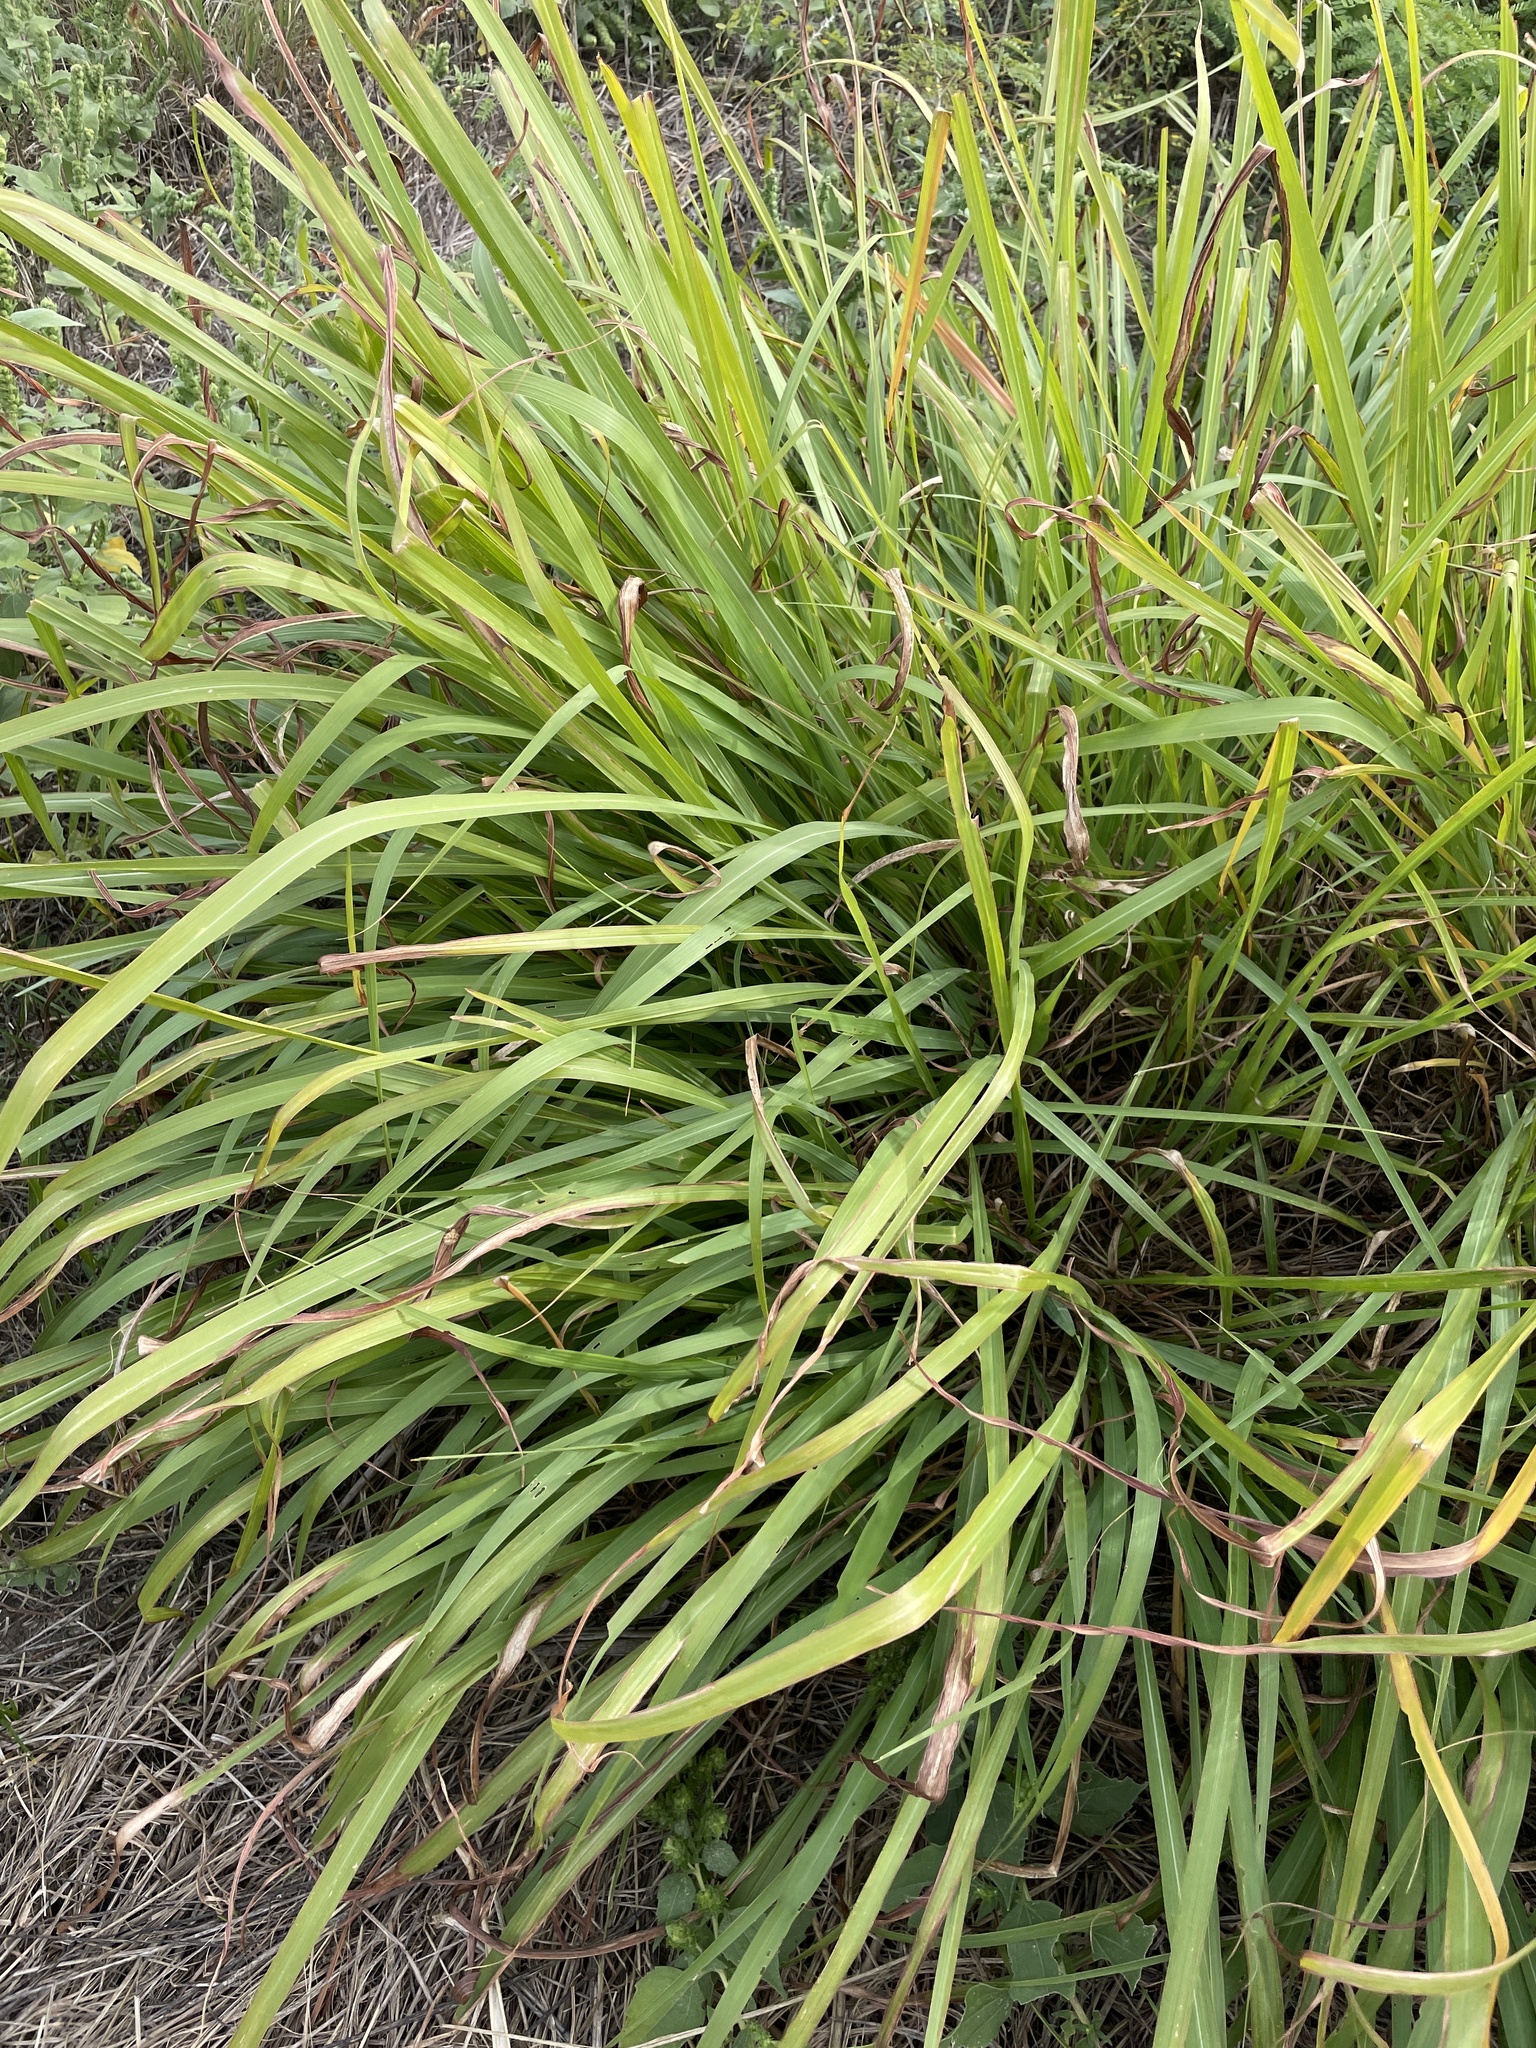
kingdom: Plantae
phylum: Tracheophyta
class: Liliopsida
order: Poales
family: Poaceae
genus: Tripsacum
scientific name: Tripsacum dactyloides
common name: Buffalo-grass
